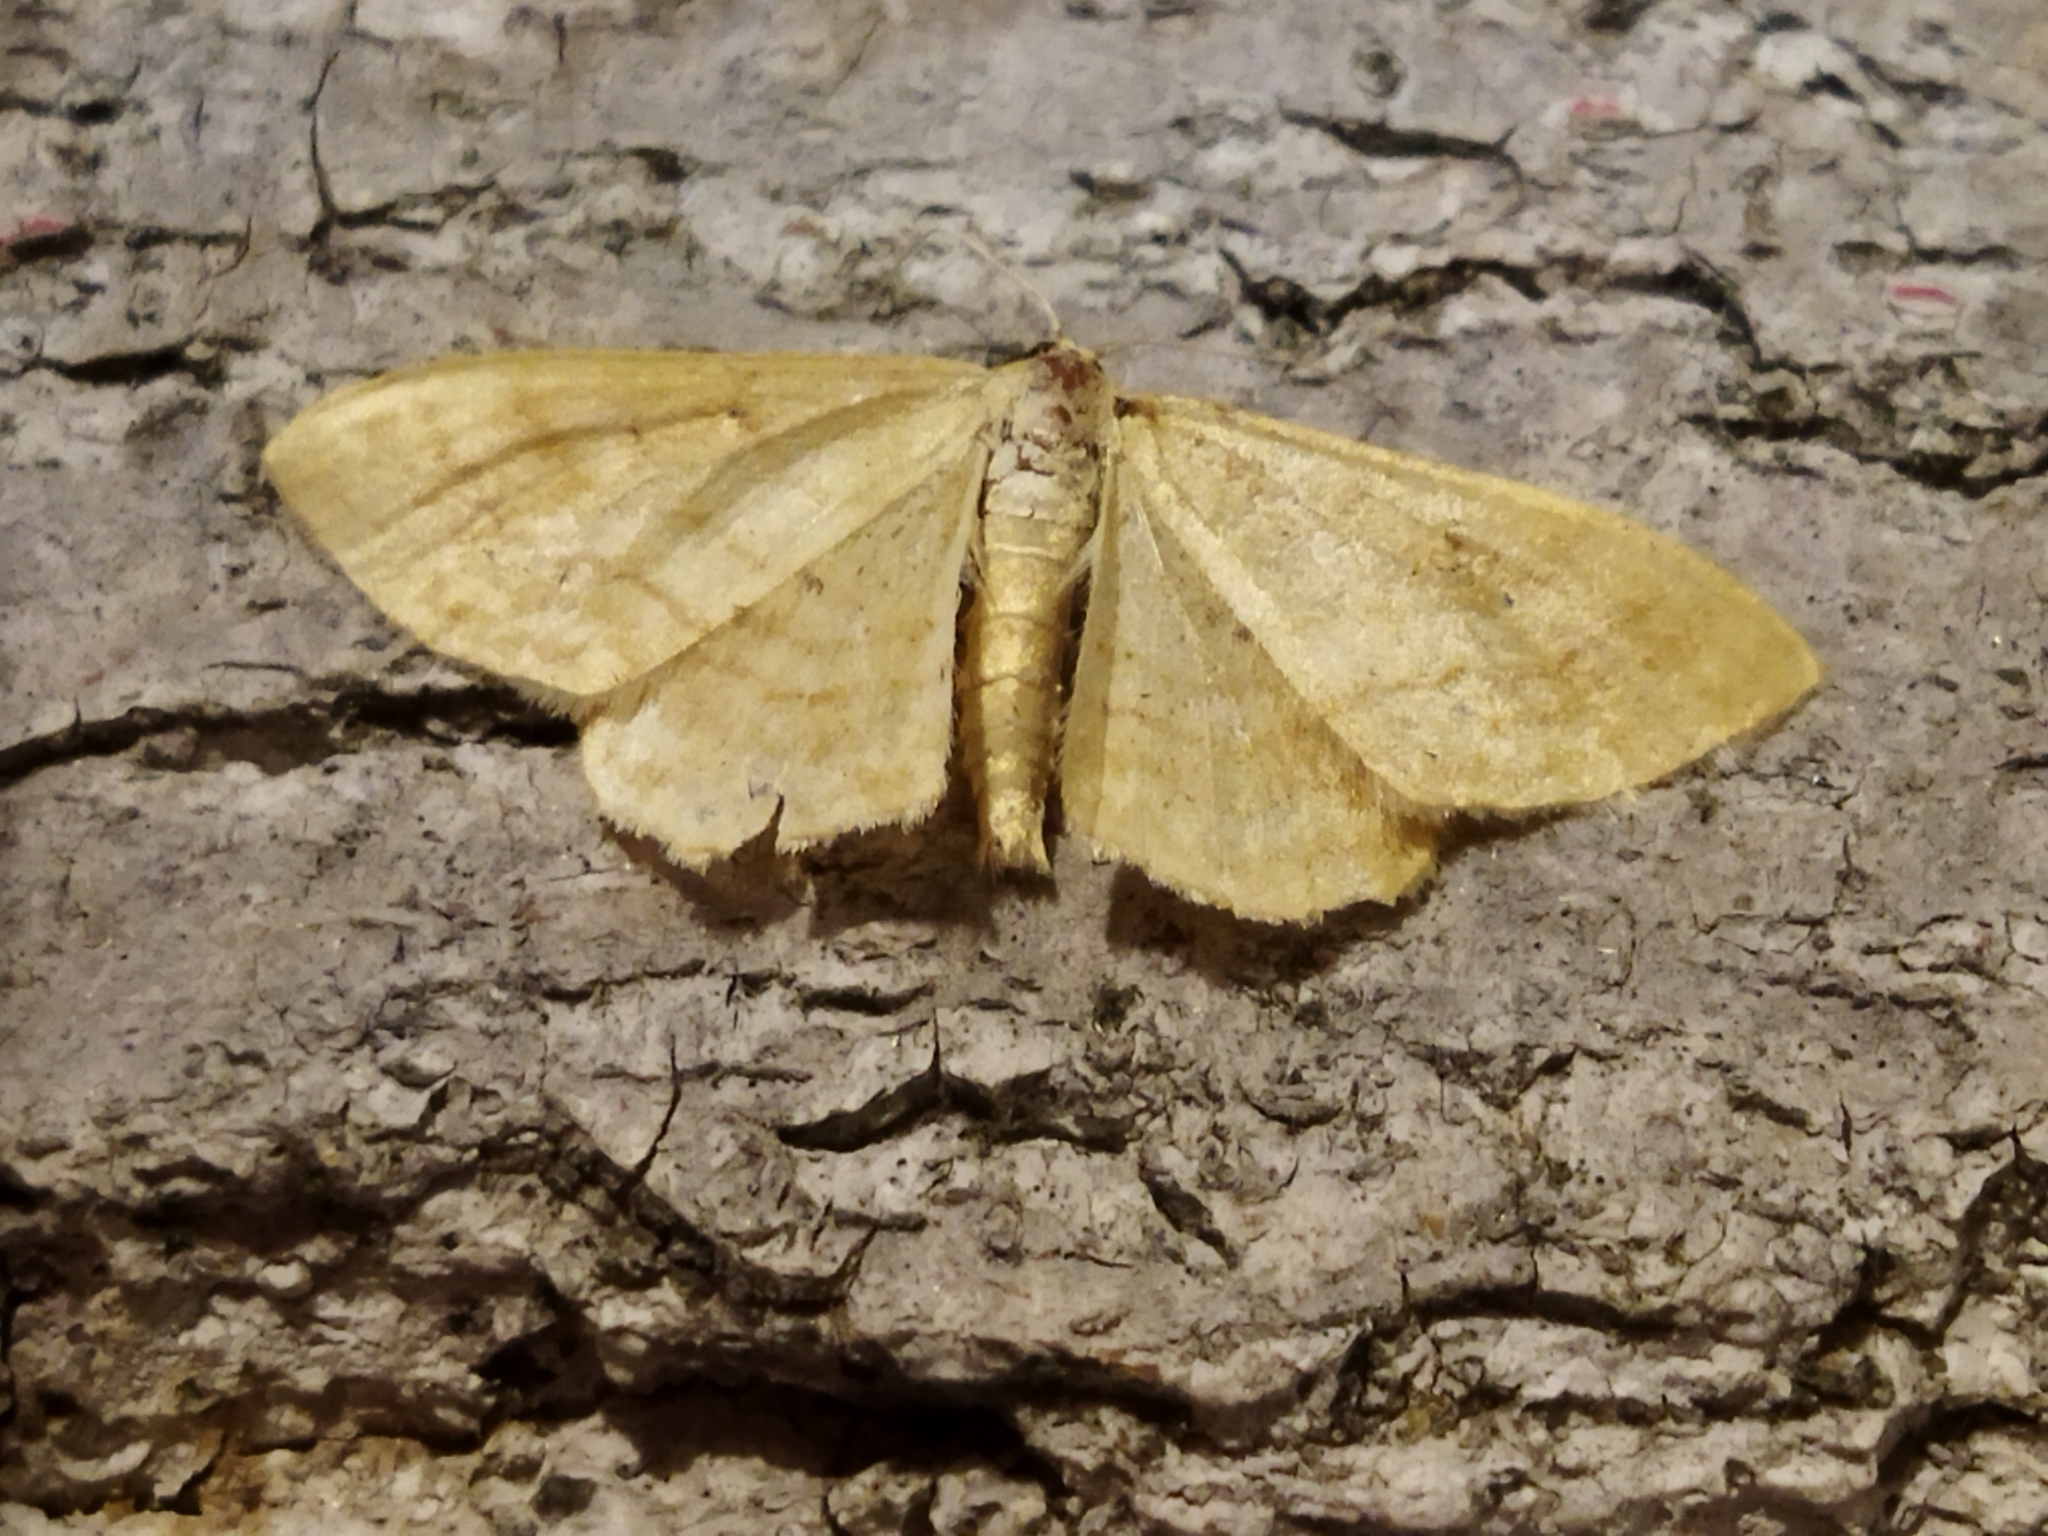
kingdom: Animalia
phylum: Arthropoda
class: Insecta
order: Lepidoptera
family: Geometridae
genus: Idaea
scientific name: Idaea rufaria
